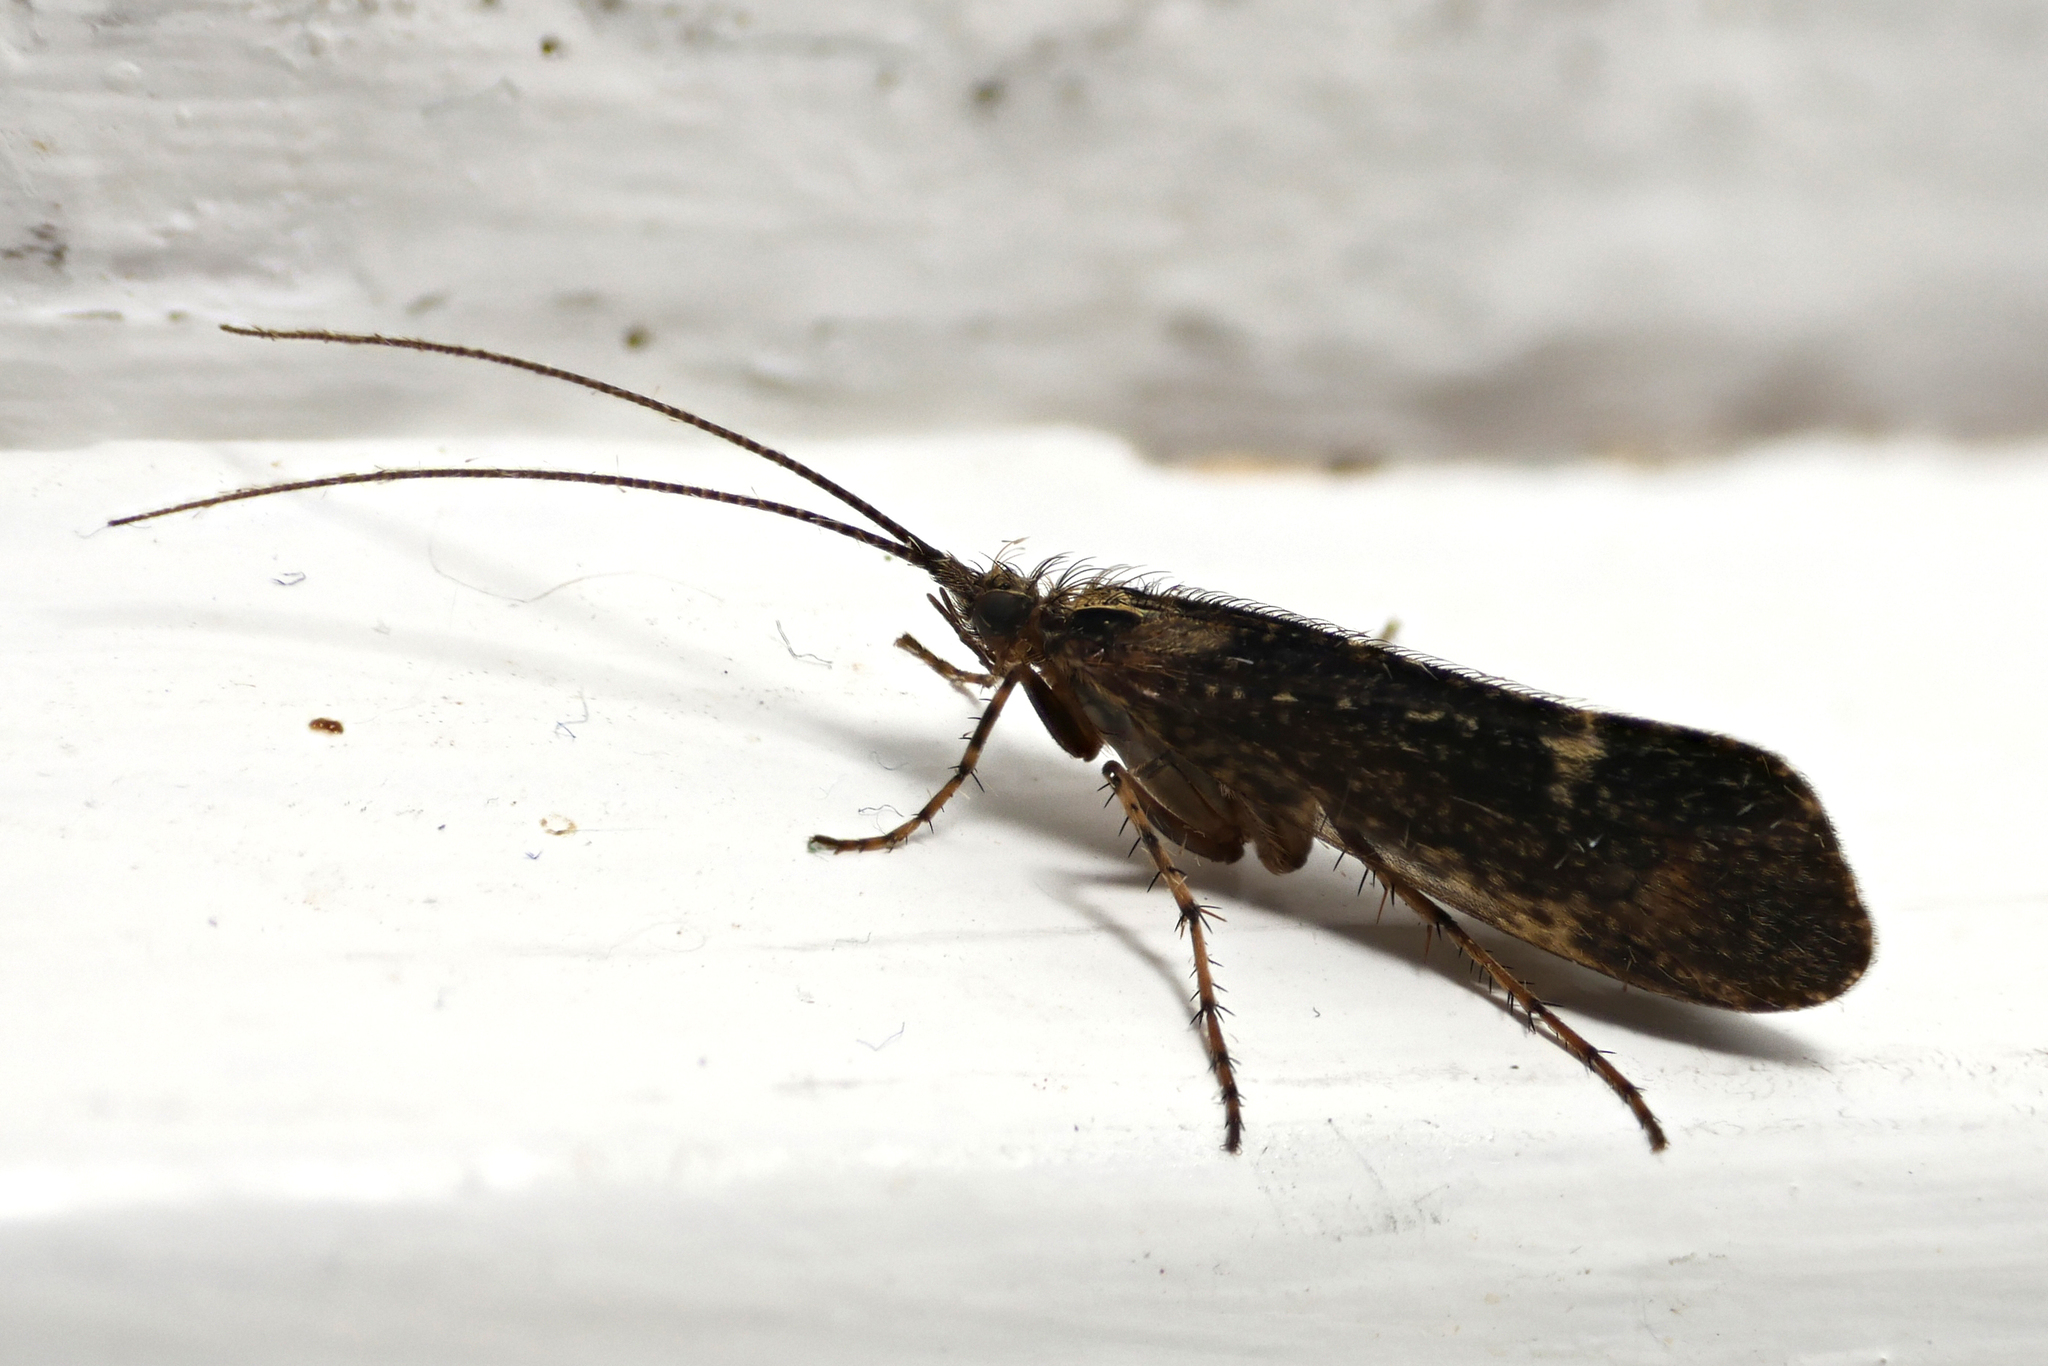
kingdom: Animalia
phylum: Arthropoda
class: Insecta
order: Trichoptera
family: Limnephilidae
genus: Limnephilus
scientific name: Limnephilus sparsus
